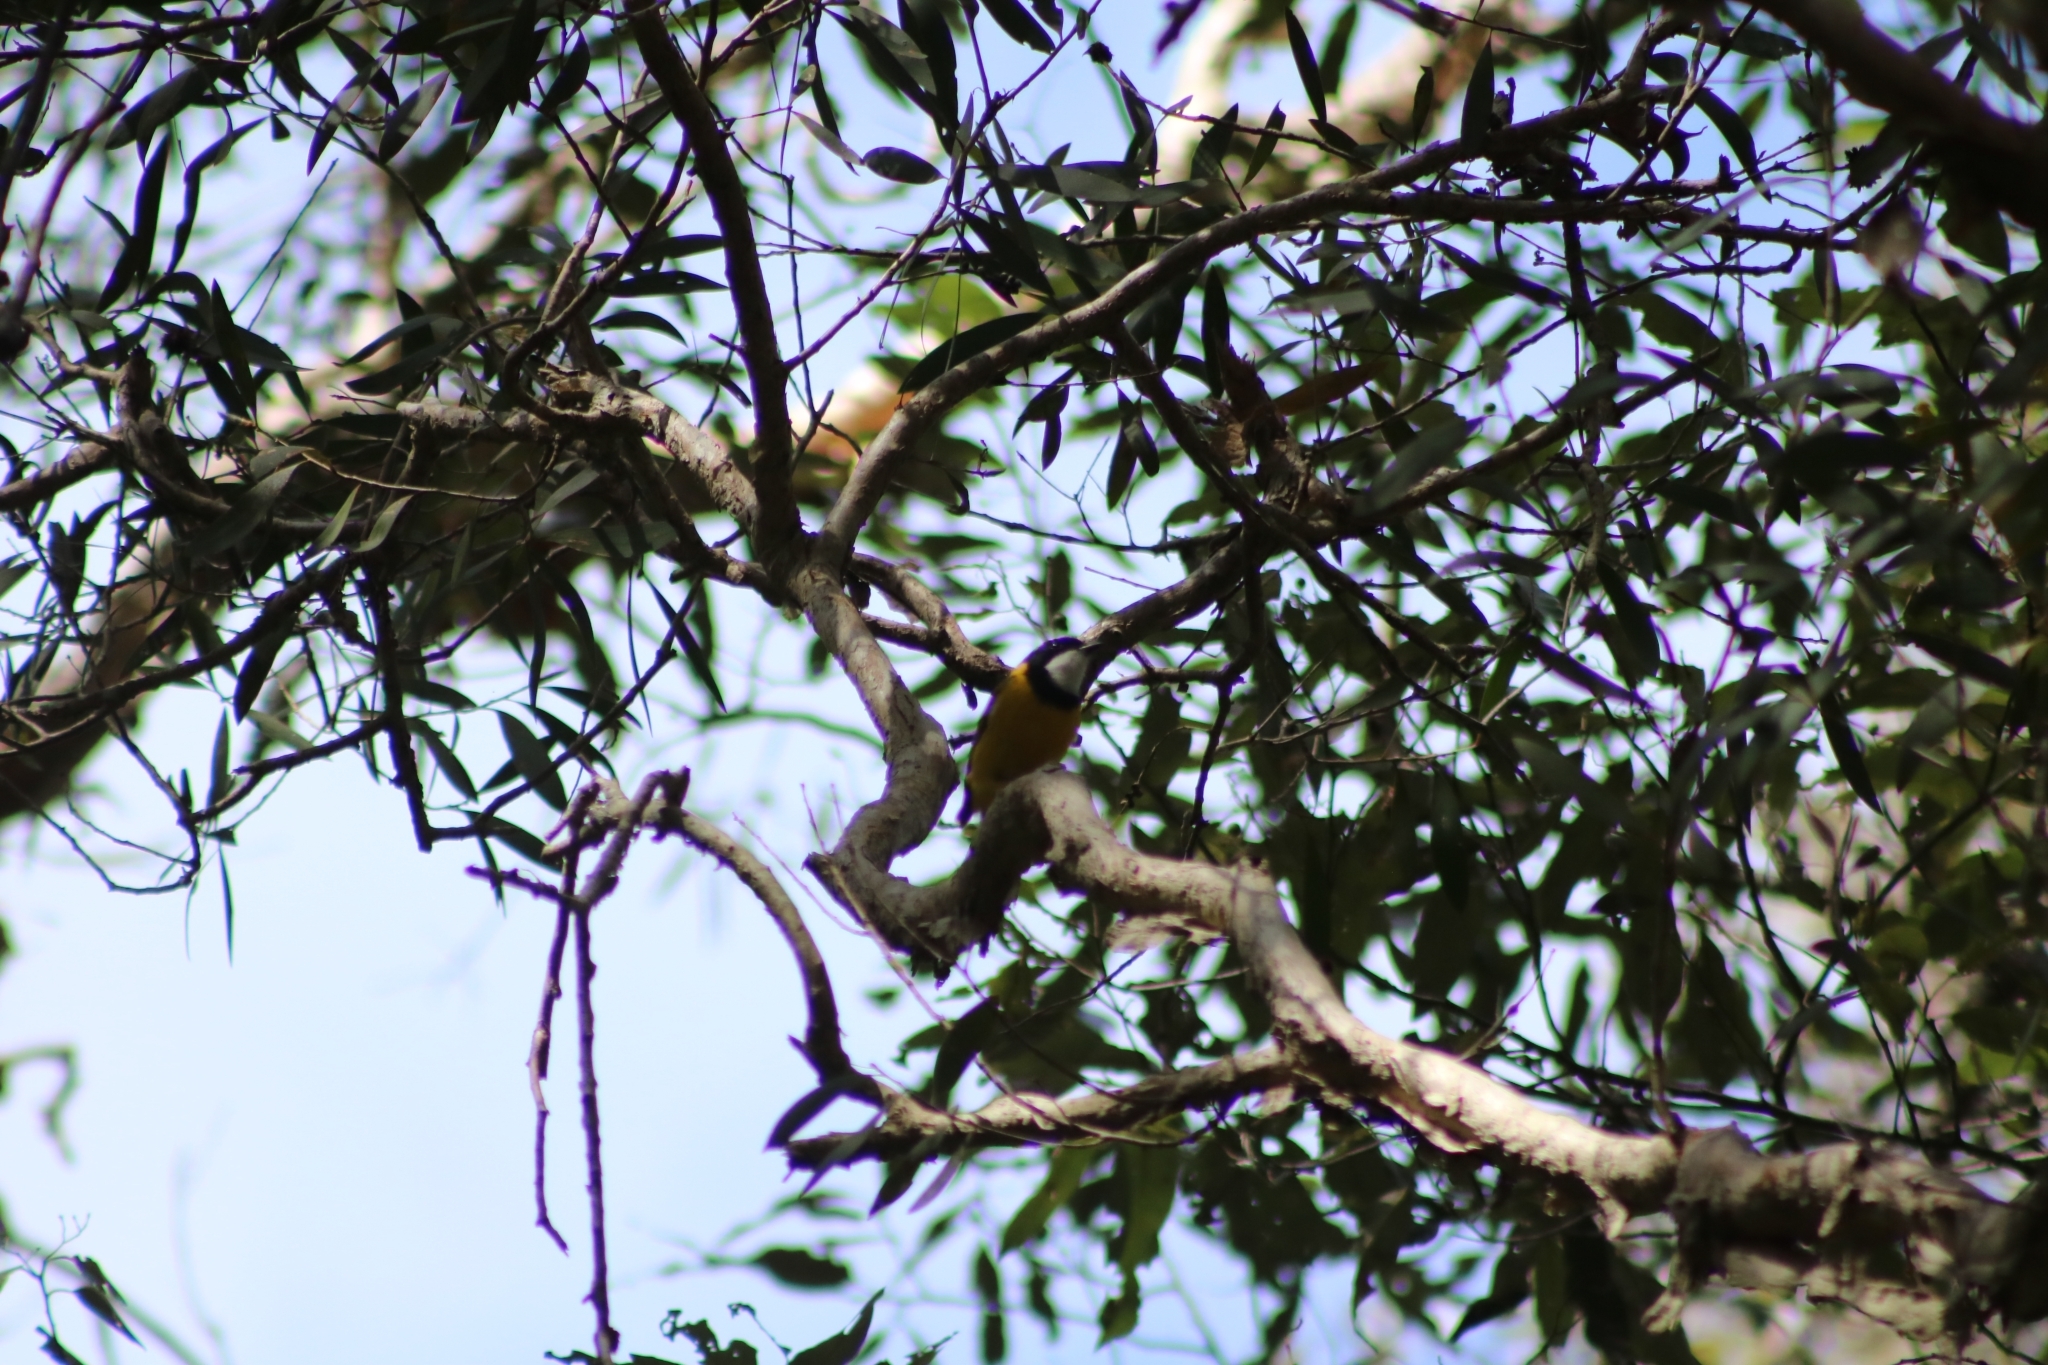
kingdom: Animalia
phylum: Chordata
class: Aves
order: Passeriformes
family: Pachycephalidae
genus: Pachycephala
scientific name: Pachycephala pectoralis
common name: Australian golden whistler
